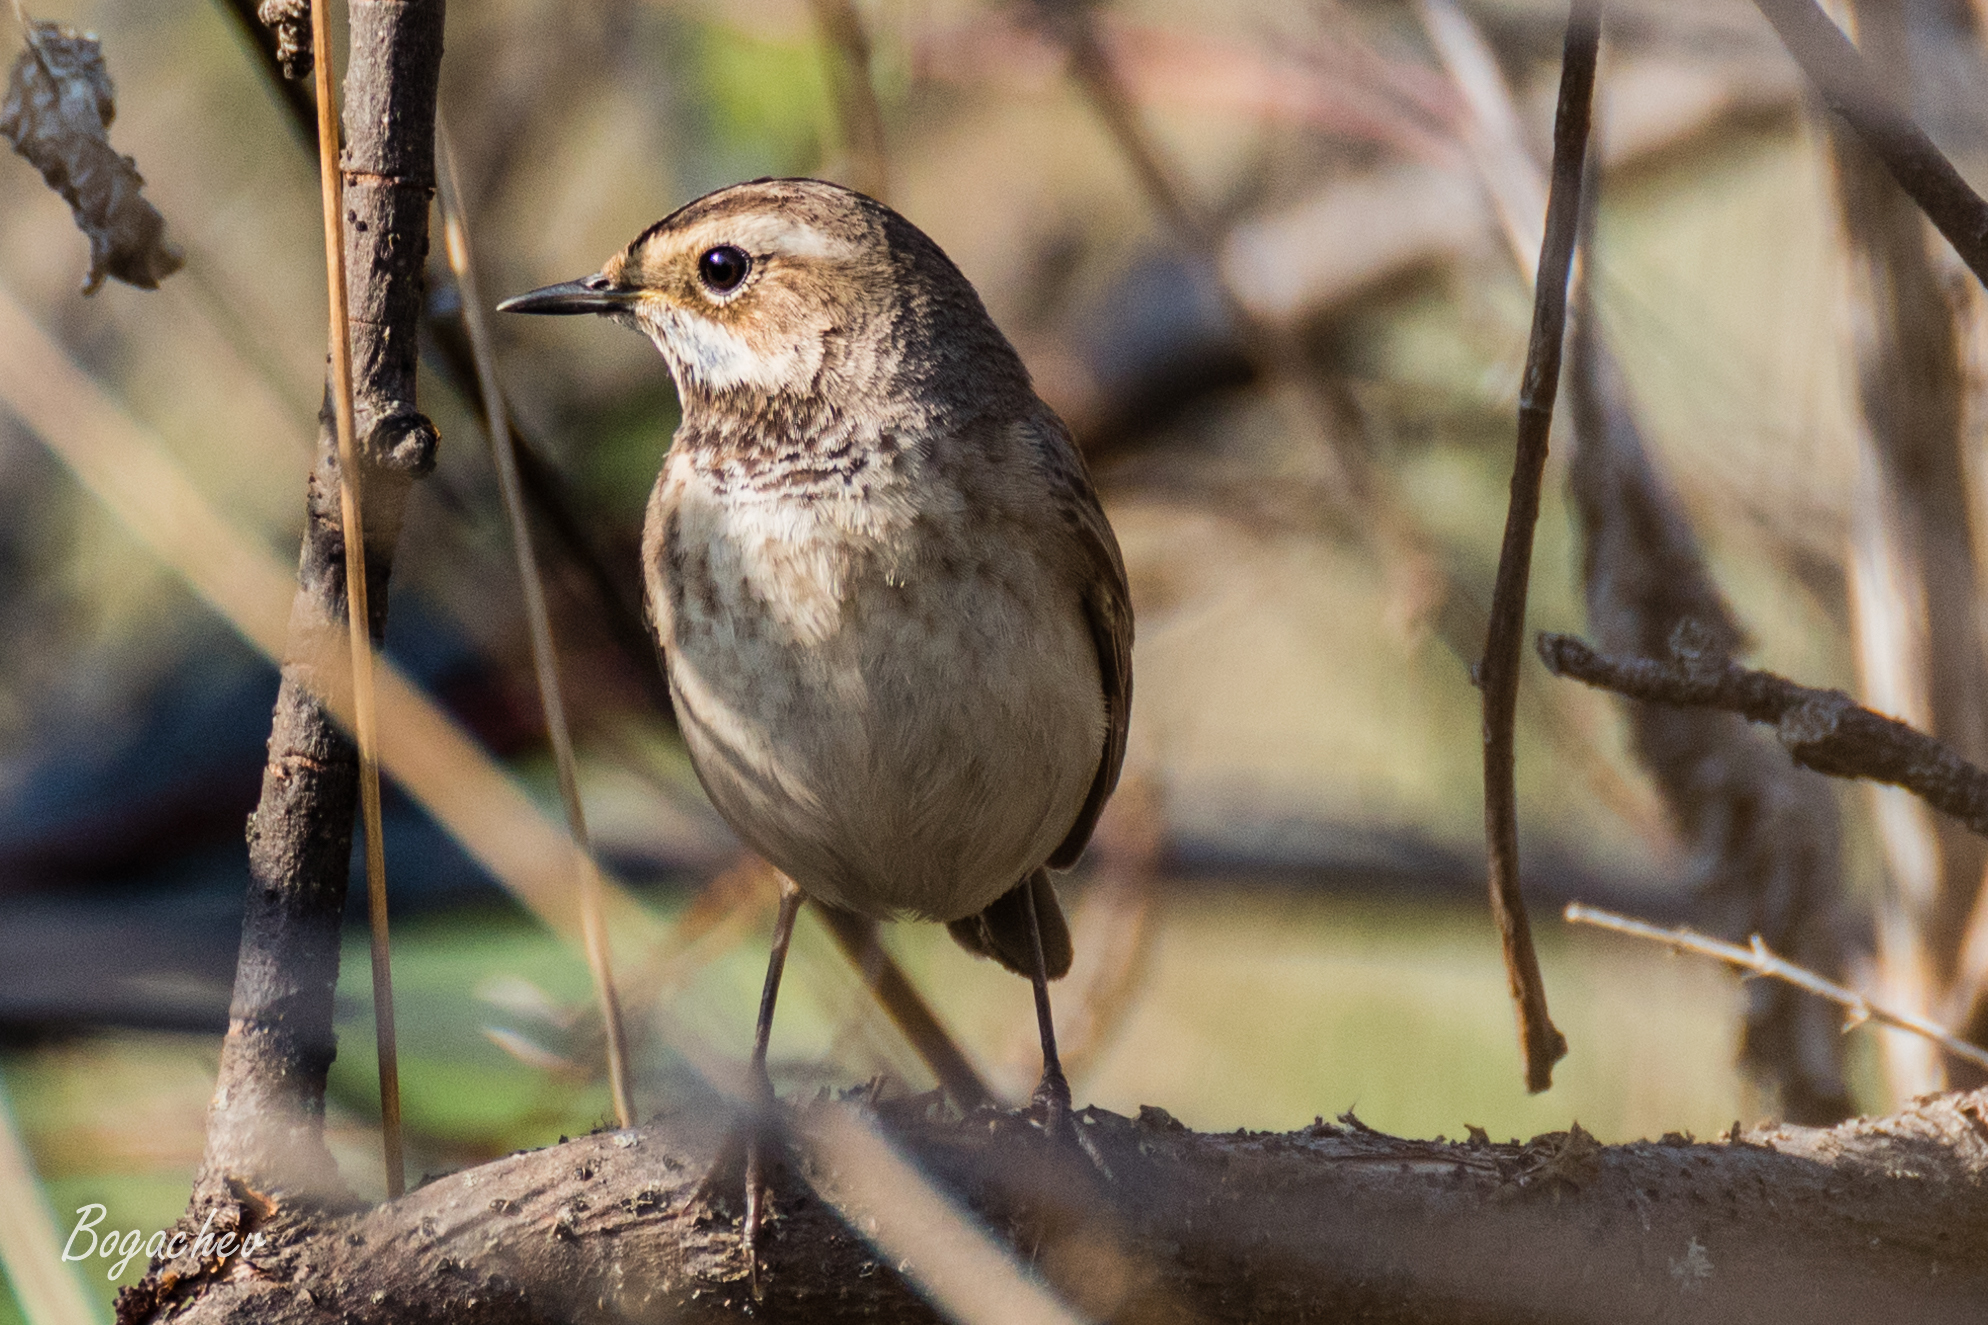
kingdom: Animalia
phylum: Chordata
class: Aves
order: Passeriformes
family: Muscicapidae
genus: Luscinia
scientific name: Luscinia svecica
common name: Bluethroat
